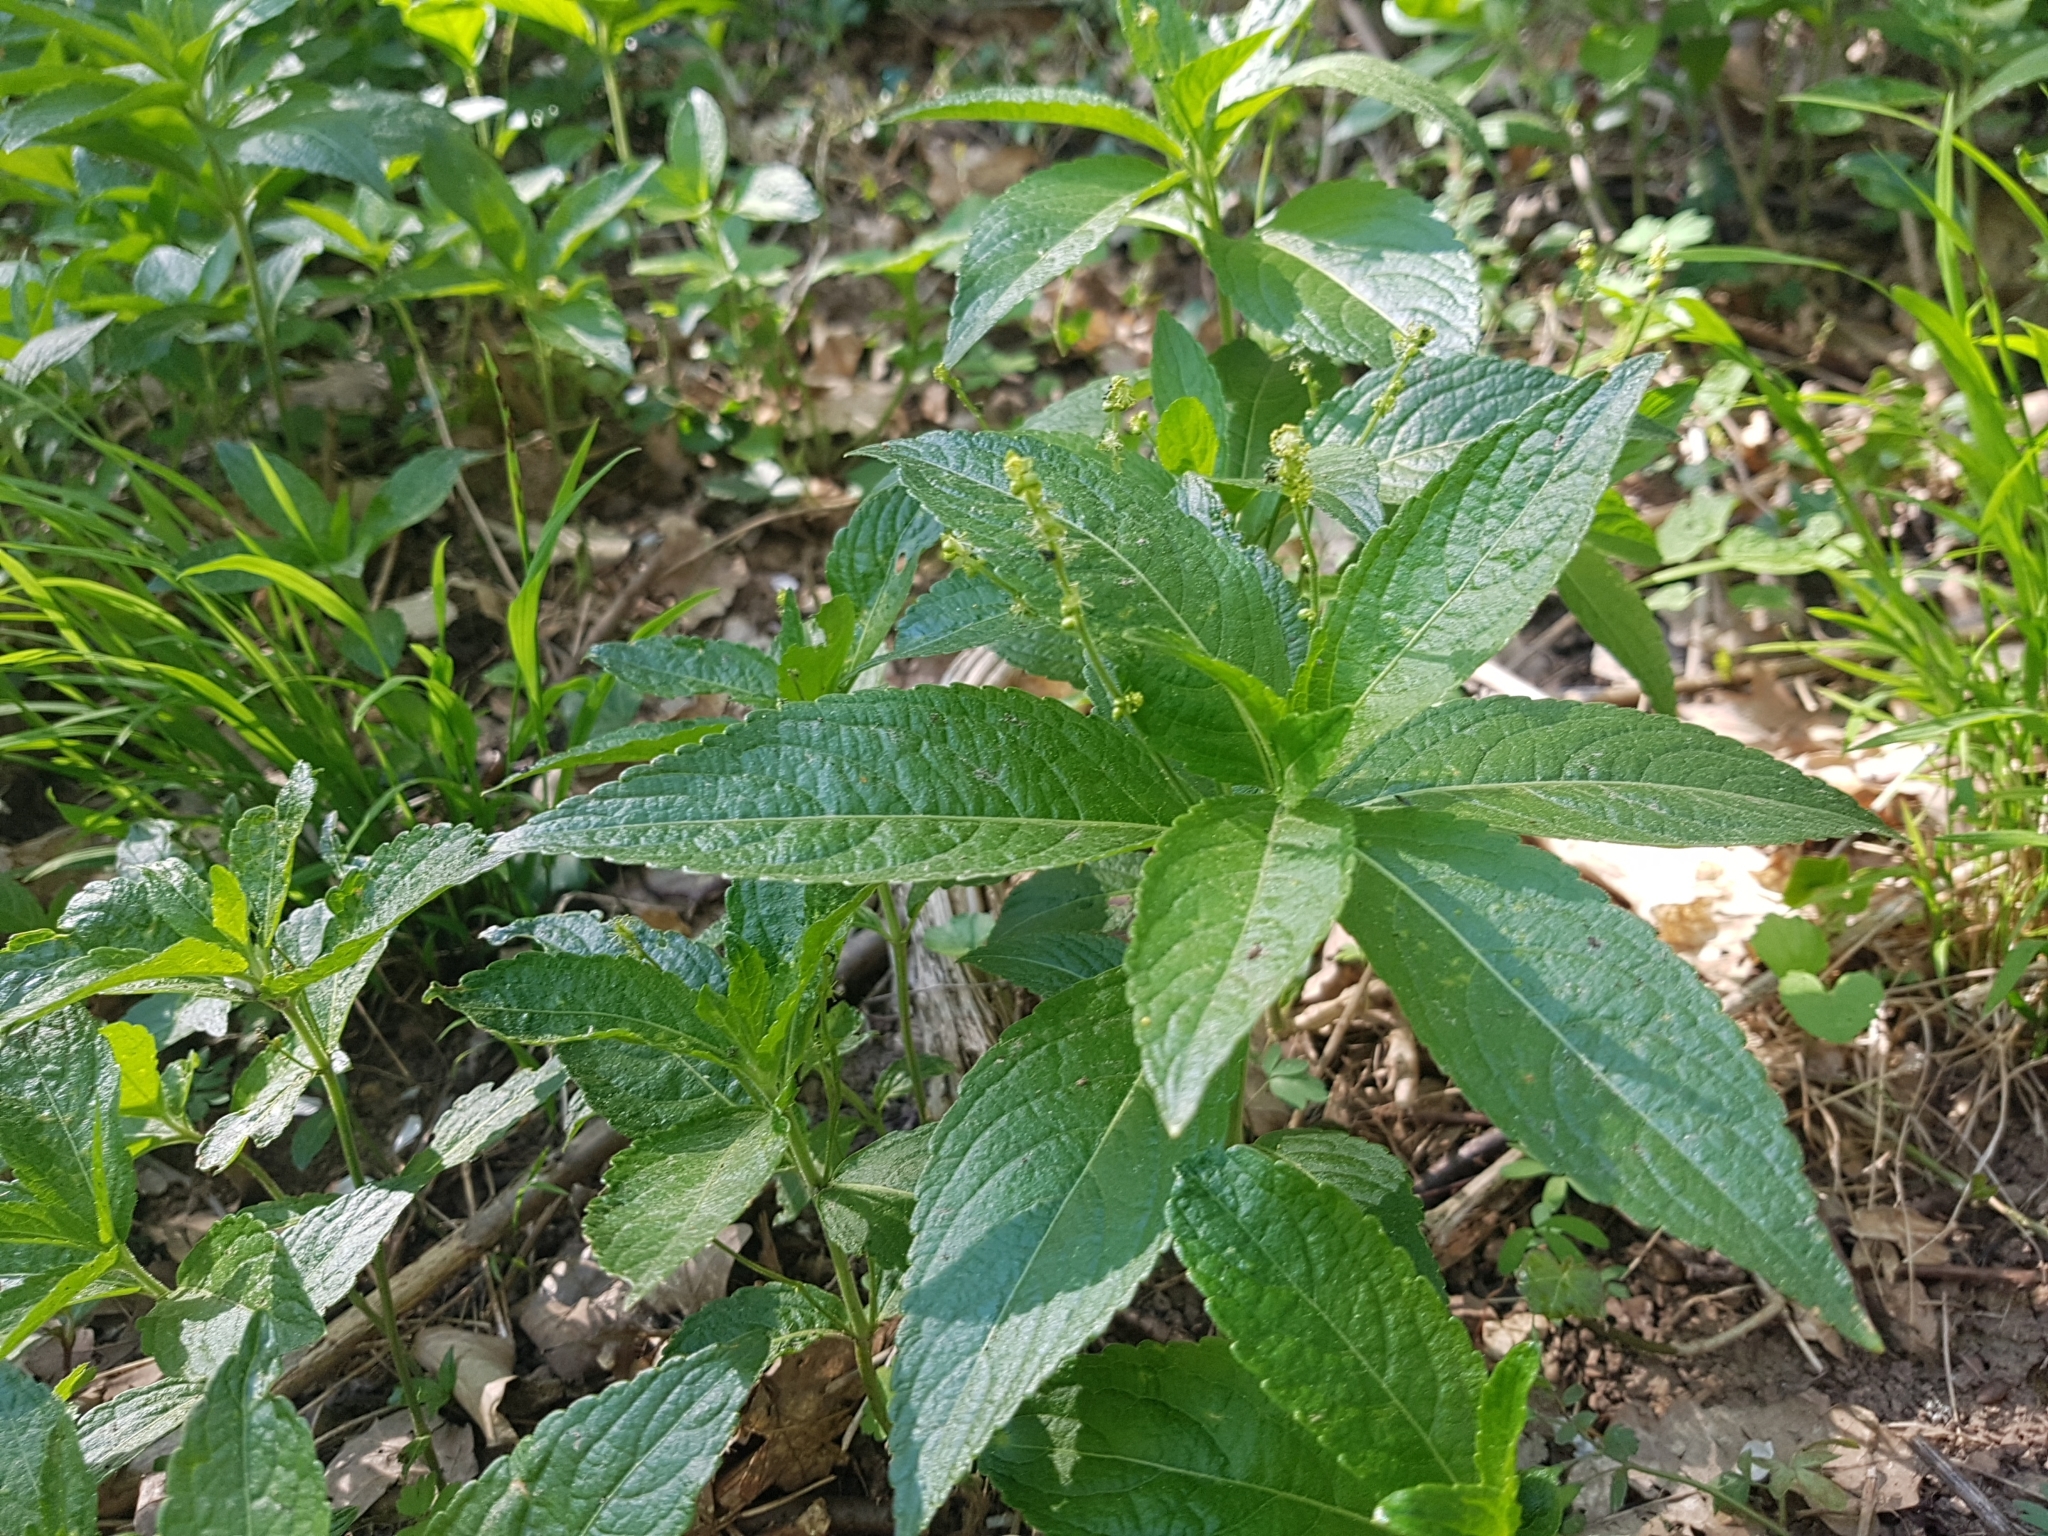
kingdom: Plantae
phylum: Tracheophyta
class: Magnoliopsida
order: Malpighiales
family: Euphorbiaceae
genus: Mercurialis
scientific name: Mercurialis perennis
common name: Dog mercury
